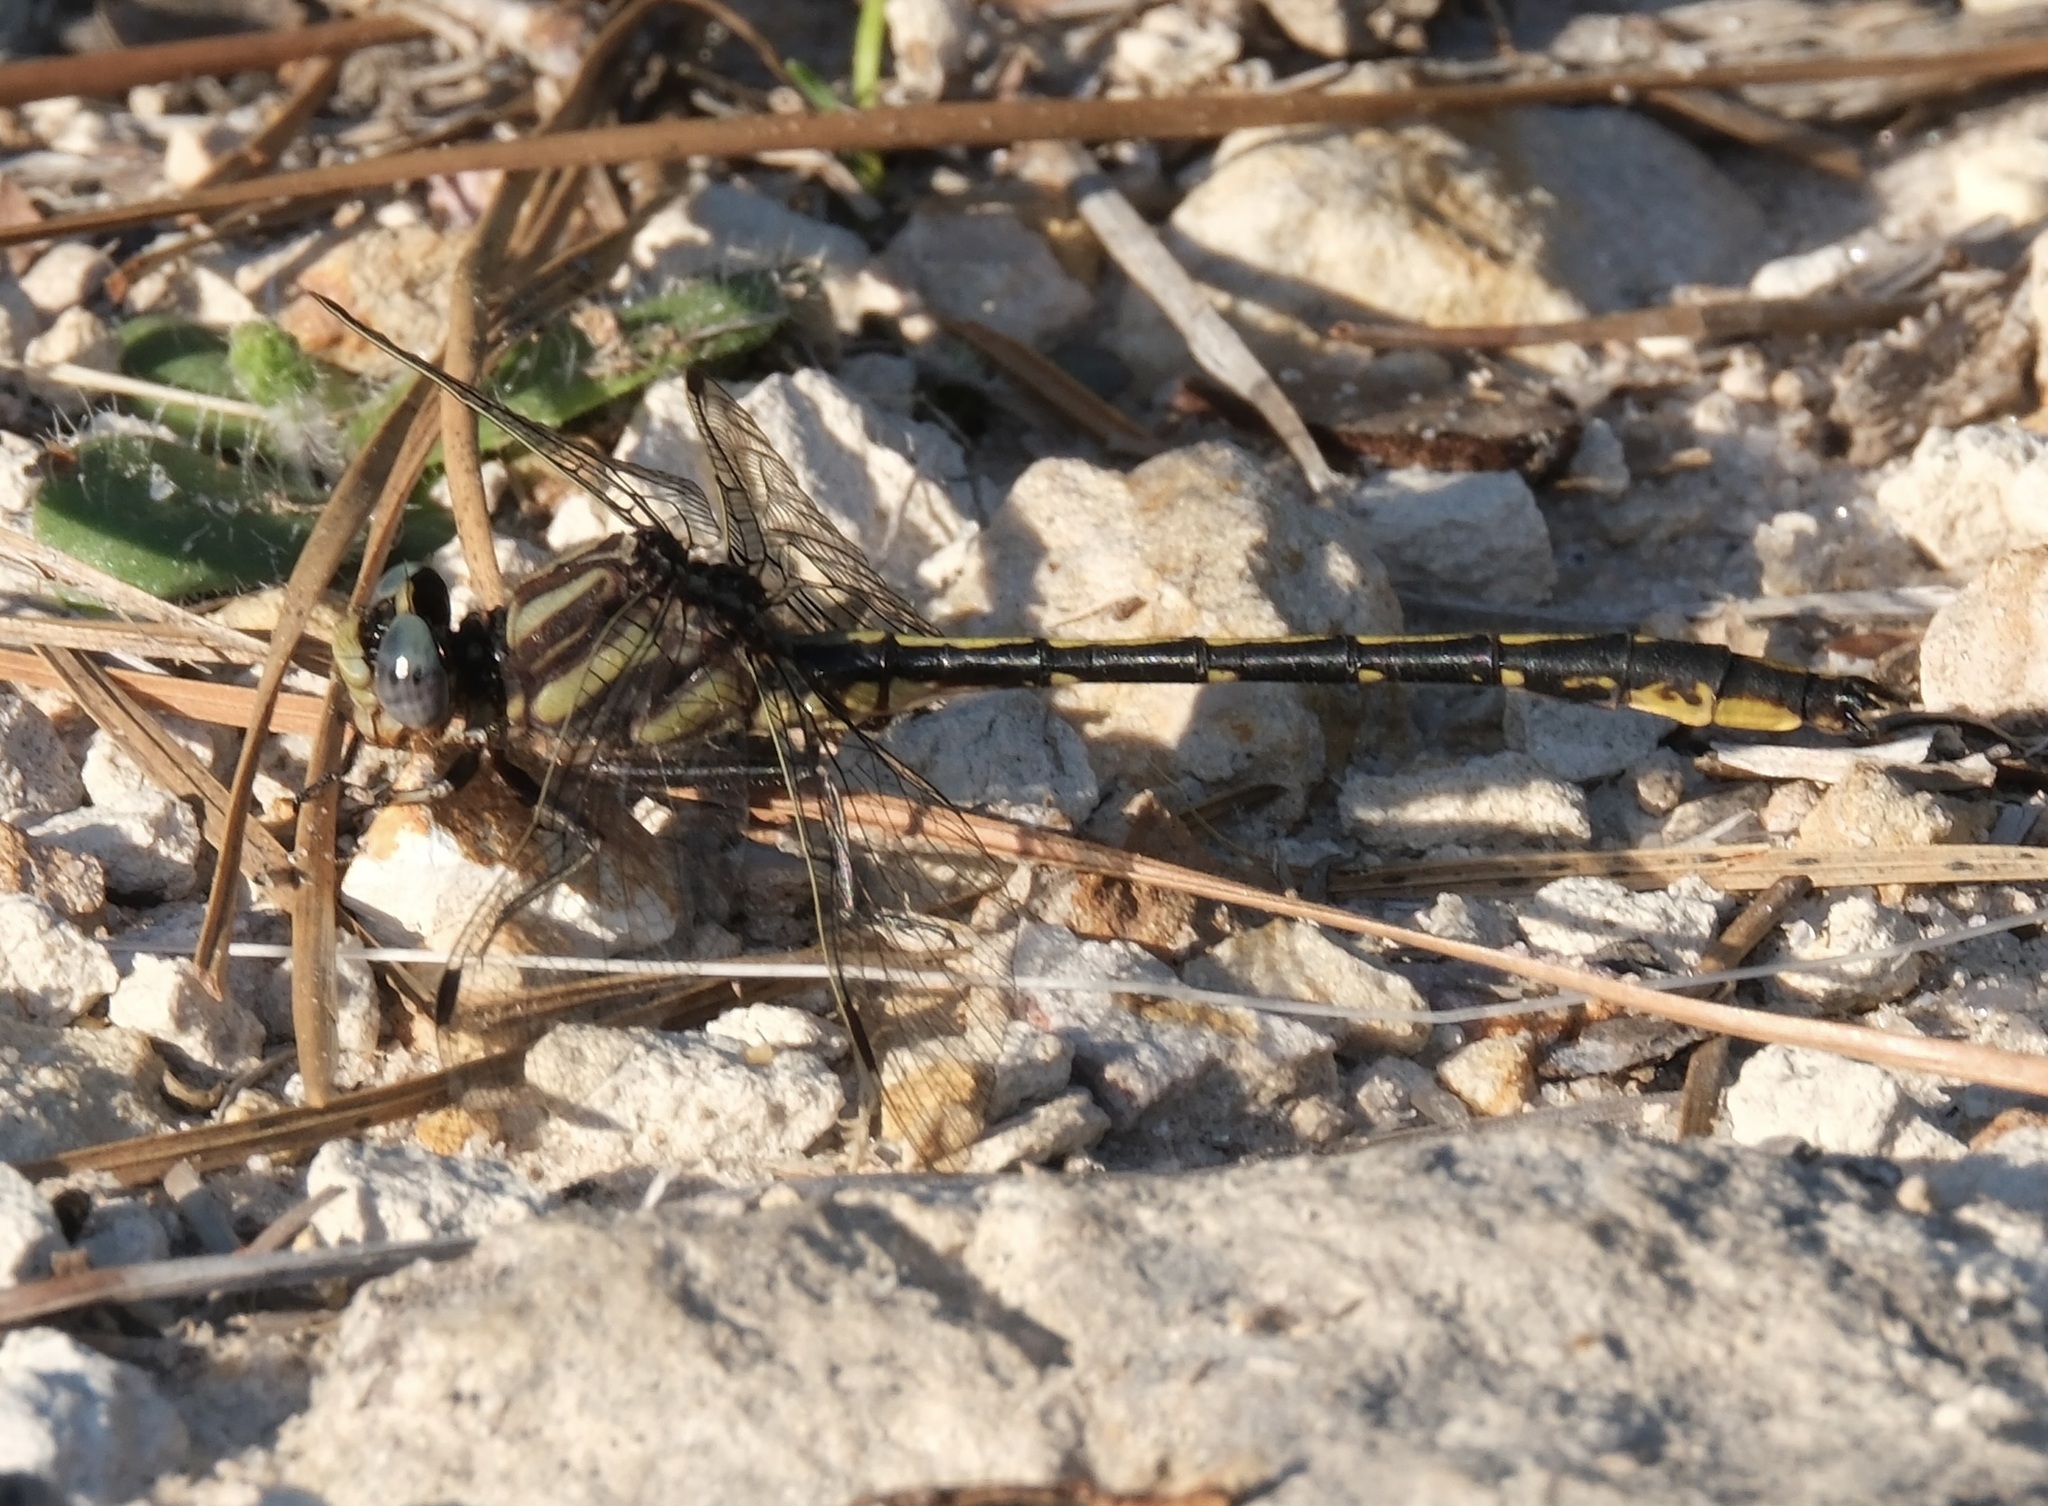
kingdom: Animalia
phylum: Arthropoda
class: Insecta
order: Odonata
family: Gomphidae
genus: Phanogomphus
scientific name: Phanogomphus oklahomensis
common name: Oklahoma clubtail
